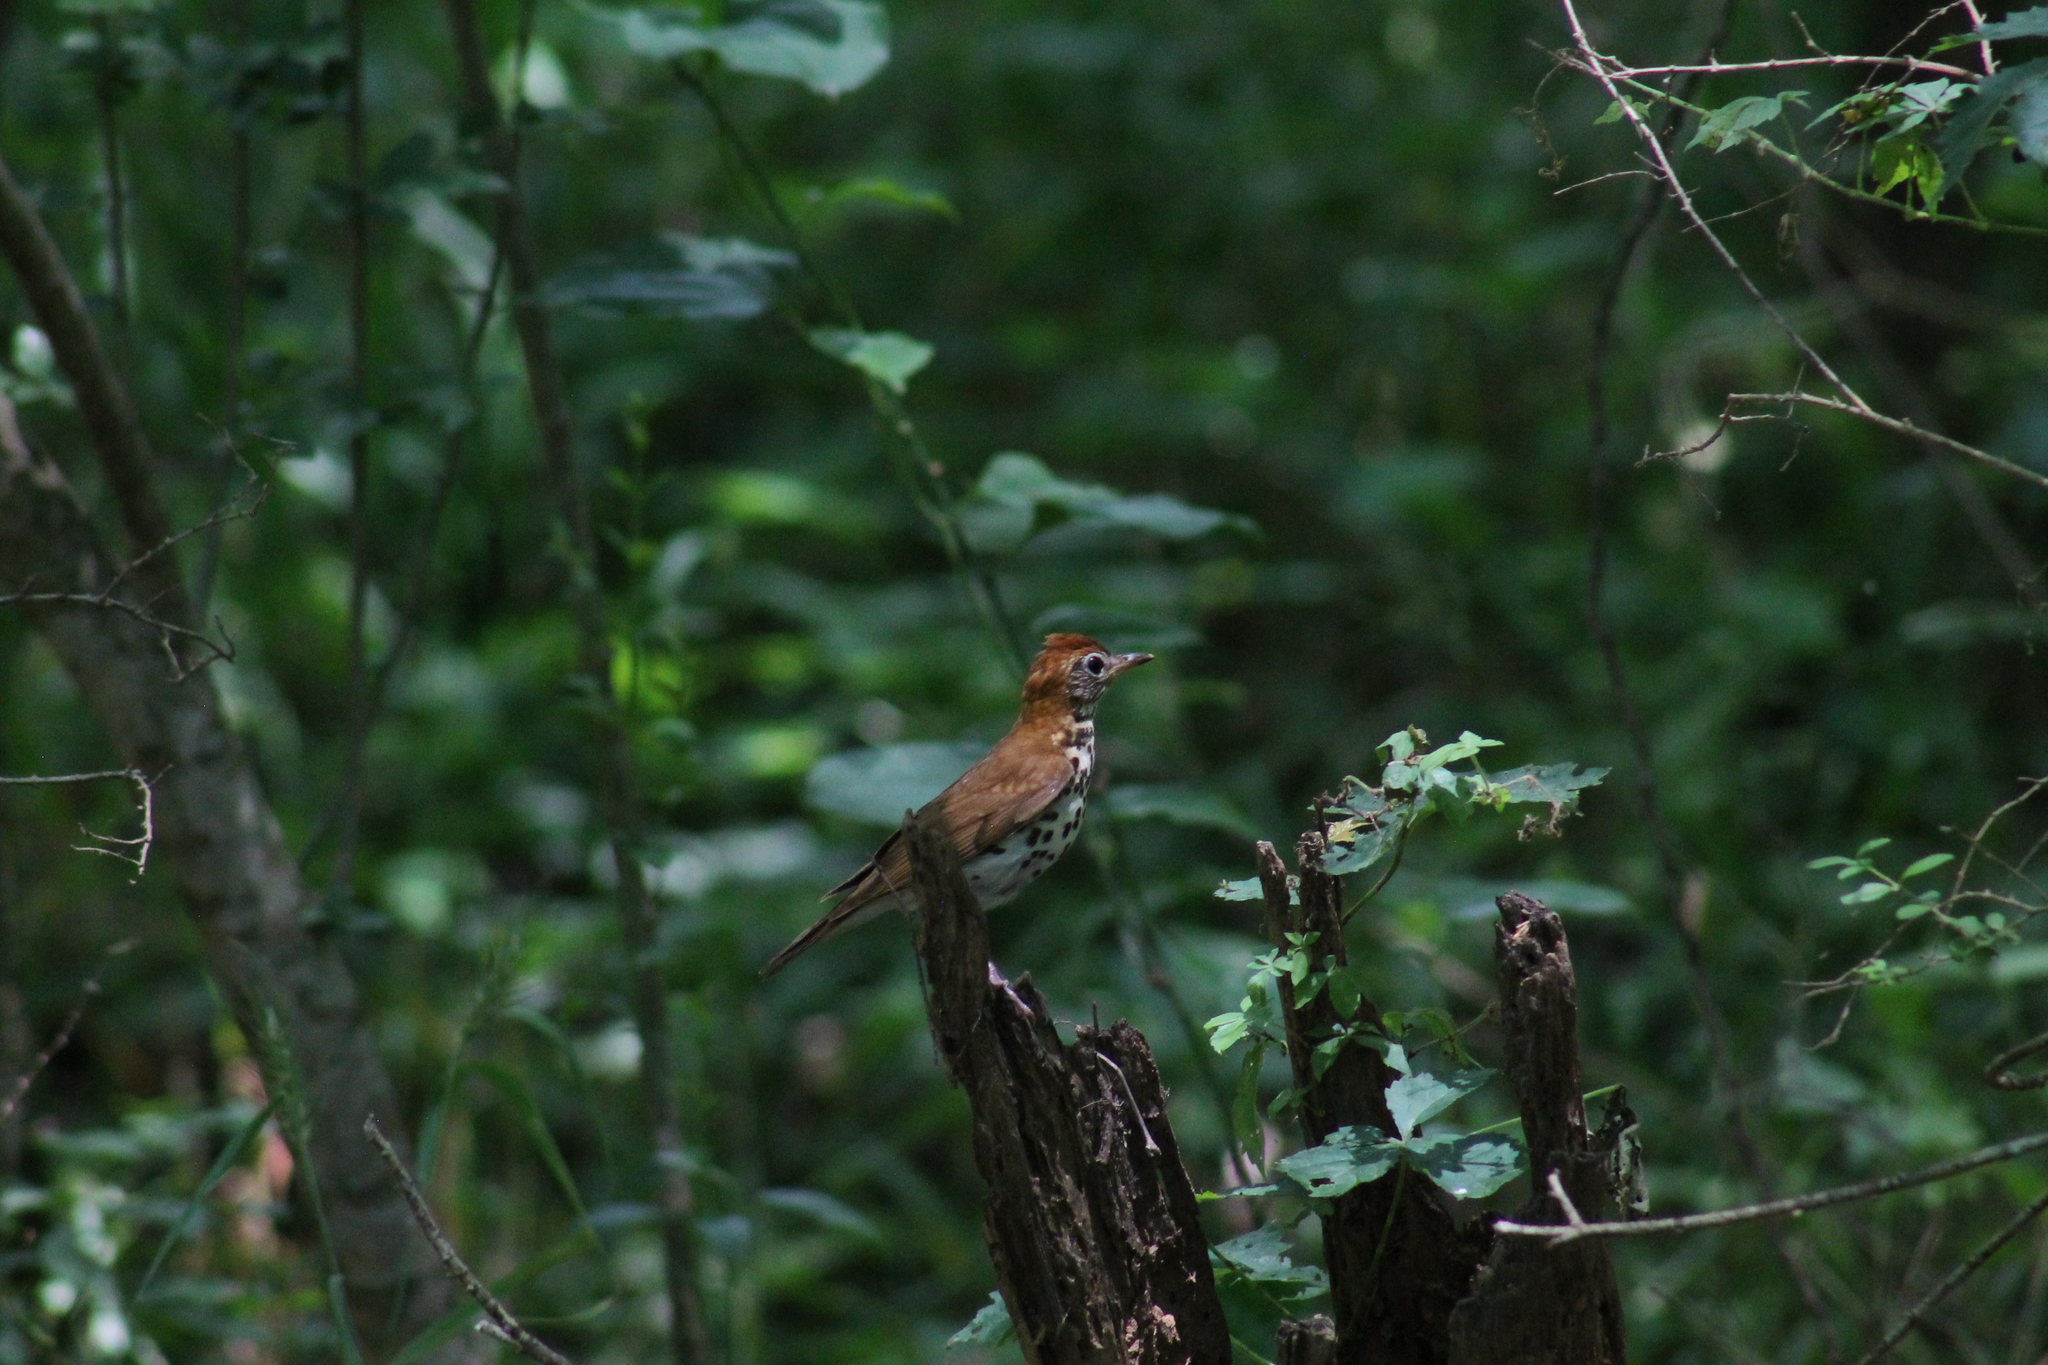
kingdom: Animalia
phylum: Chordata
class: Aves
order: Passeriformes
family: Turdidae
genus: Hylocichla
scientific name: Hylocichla mustelina
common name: Wood thrush
